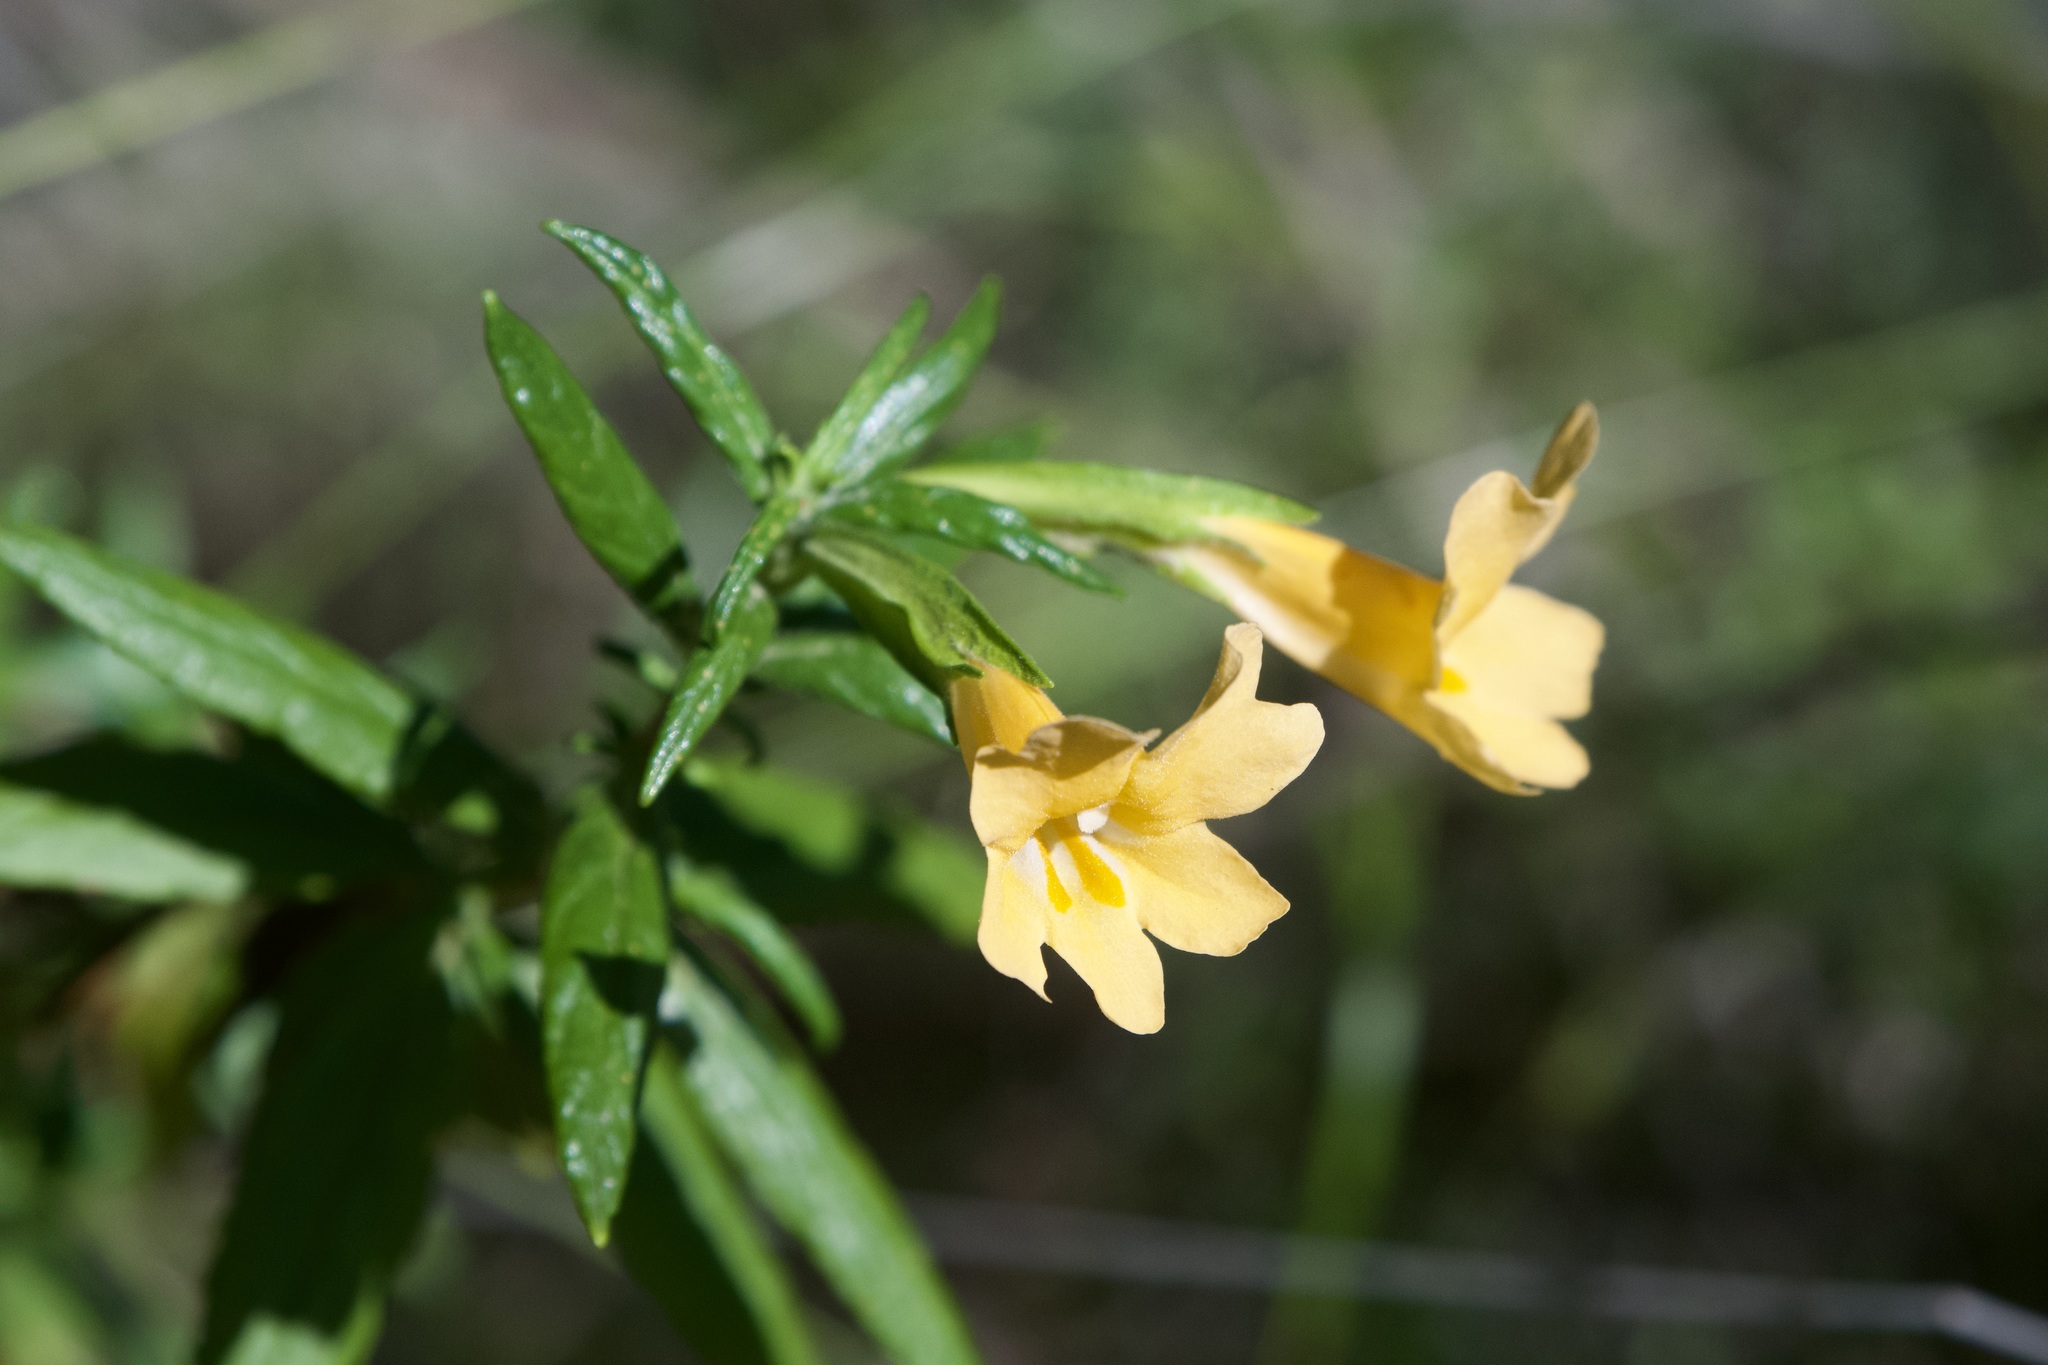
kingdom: Plantae
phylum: Tracheophyta
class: Magnoliopsida
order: Lamiales
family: Phrymaceae
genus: Diplacus
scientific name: Diplacus aurantiacus
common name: Bush monkey-flower
